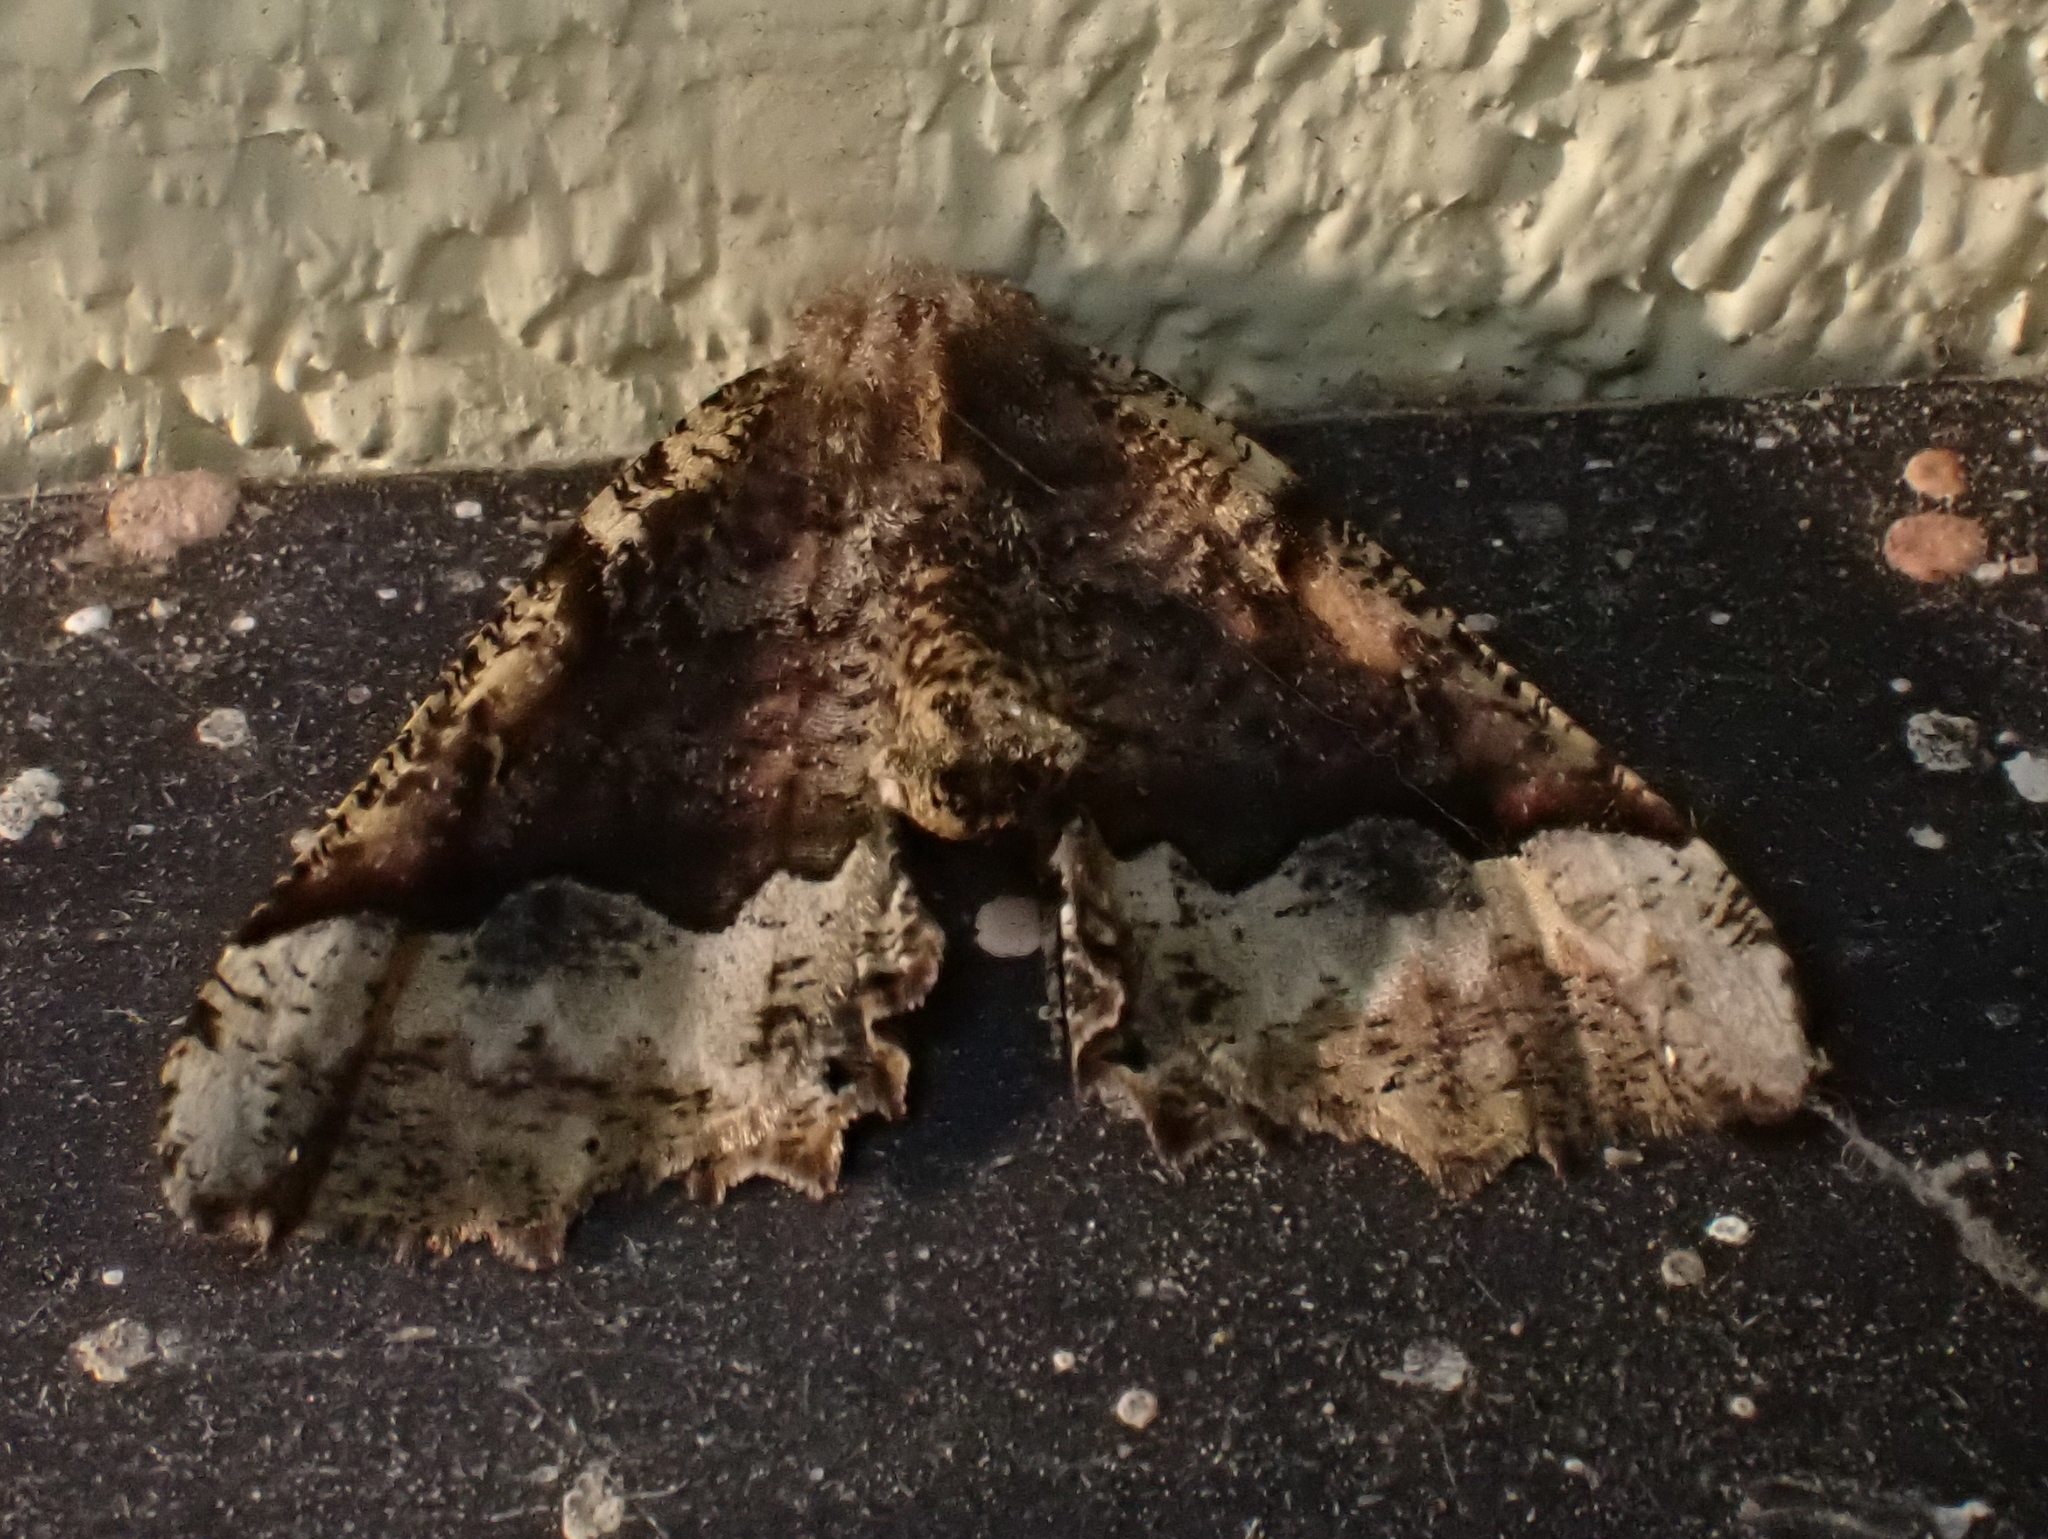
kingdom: Animalia
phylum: Arthropoda
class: Insecta
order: Lepidoptera
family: Geometridae
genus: Pero
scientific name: Pero morrisonaria
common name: Morrison's pero
